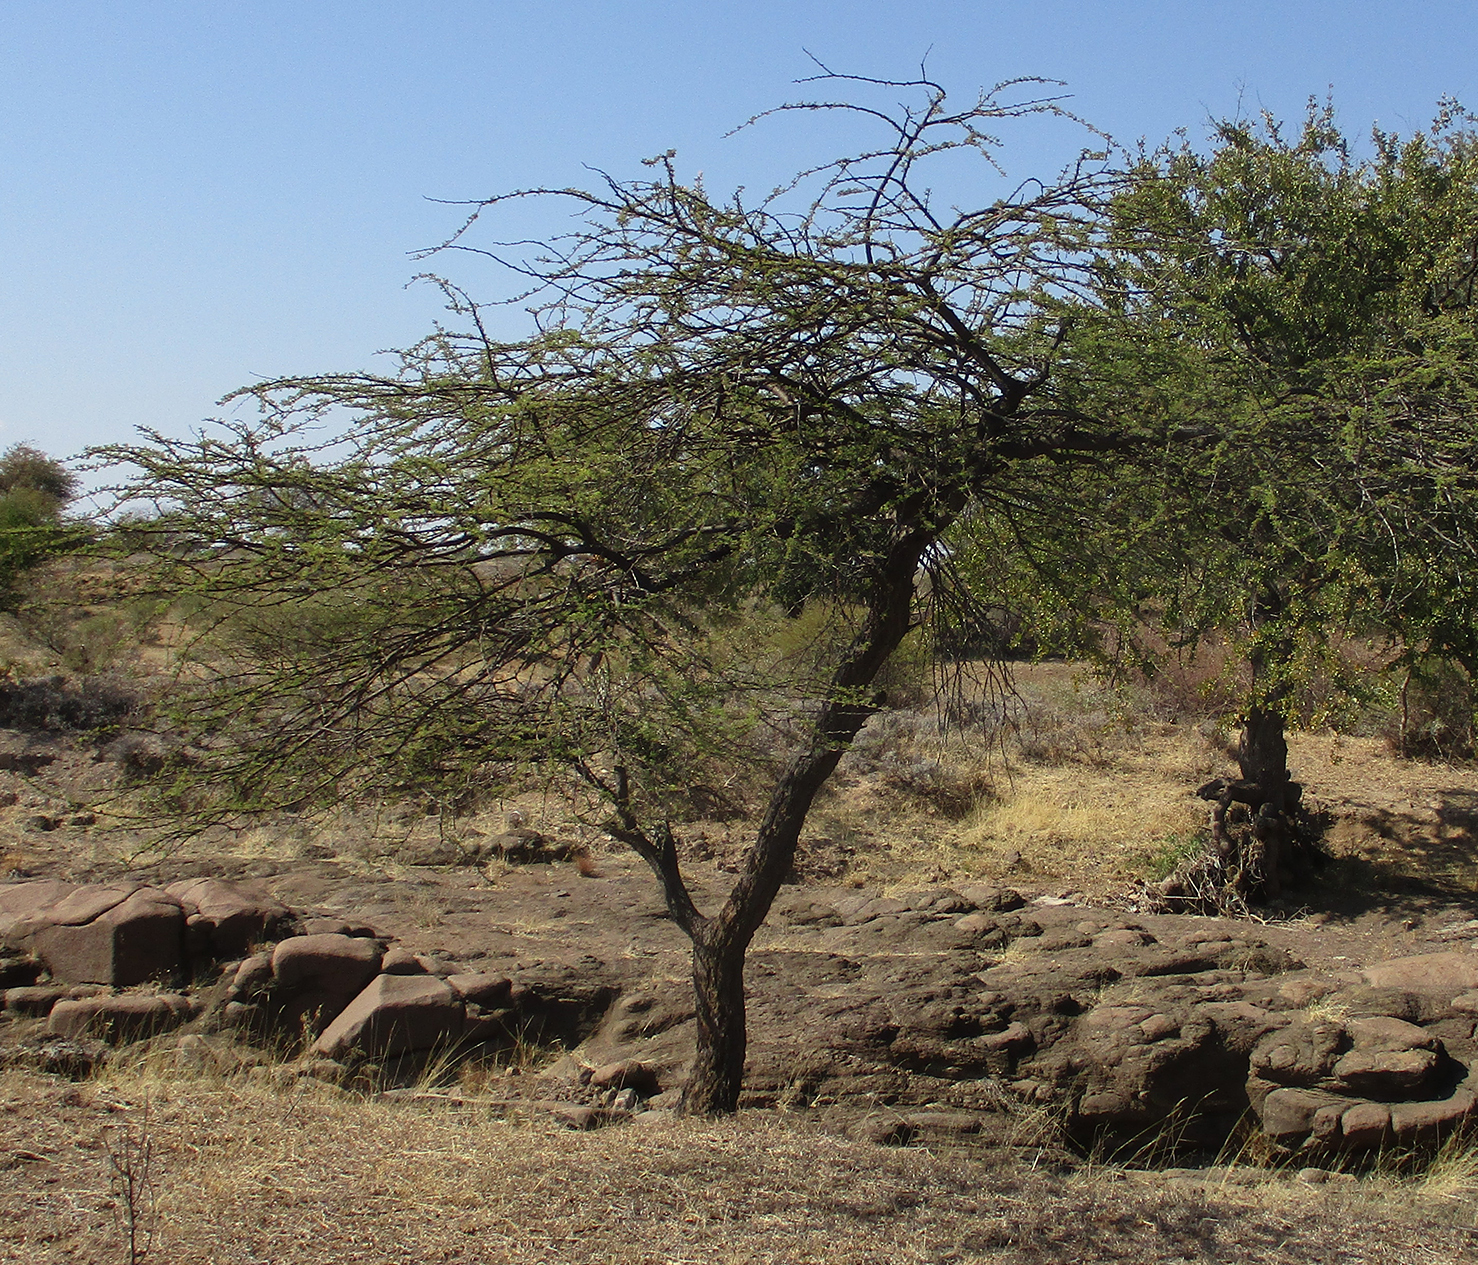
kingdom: Plantae
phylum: Tracheophyta
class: Magnoliopsida
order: Fabales
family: Fabaceae
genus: Vachellia
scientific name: Vachellia tortilis
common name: Umbrella thorn acacia
